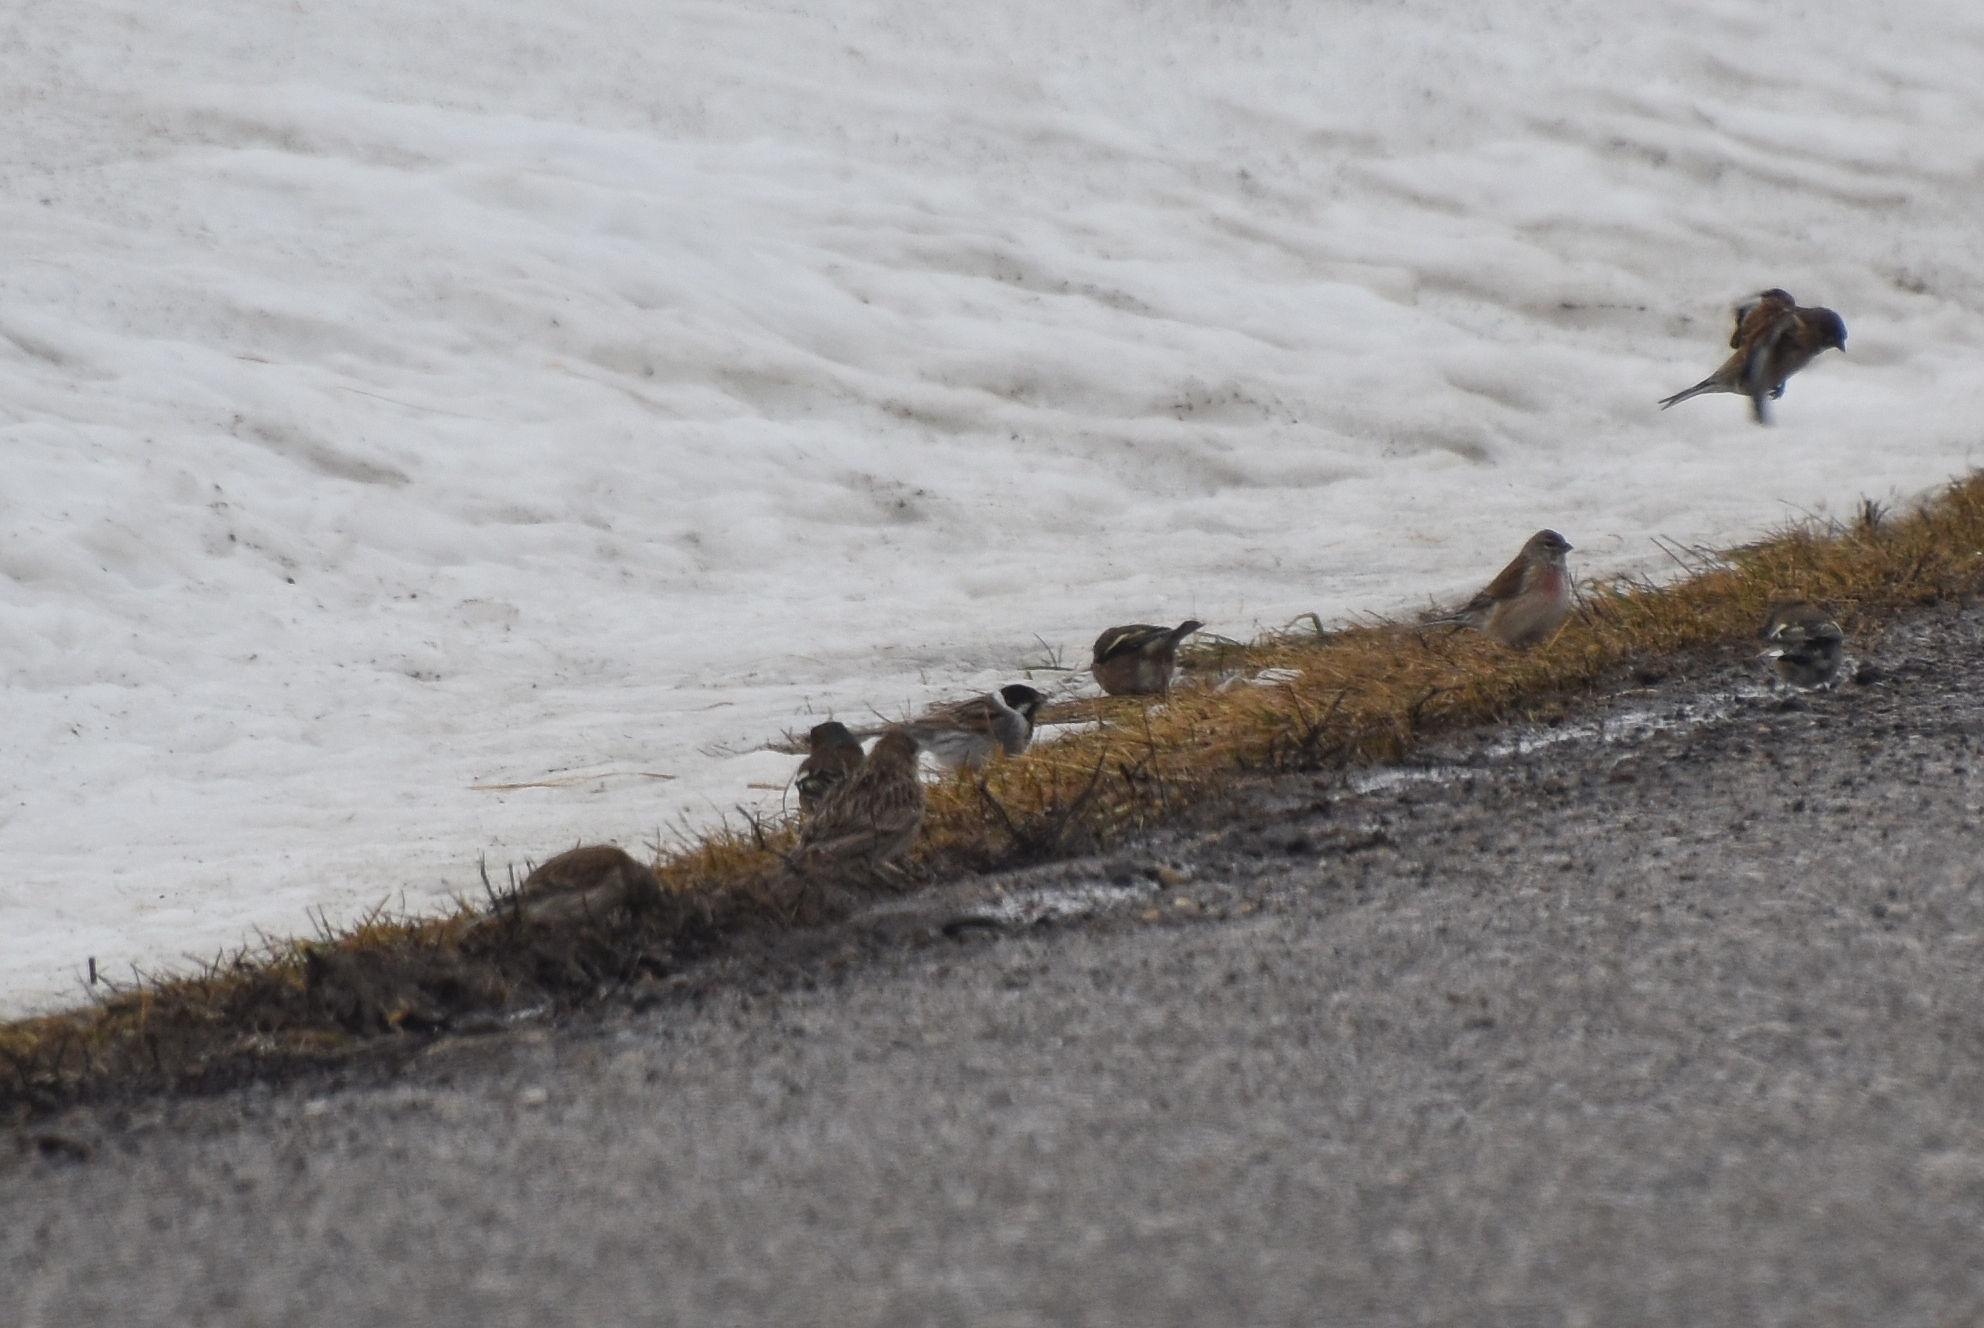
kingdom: Animalia
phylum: Chordata
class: Aves
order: Passeriformes
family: Emberizidae
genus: Emberiza
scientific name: Emberiza schoeniclus
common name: Reed bunting
